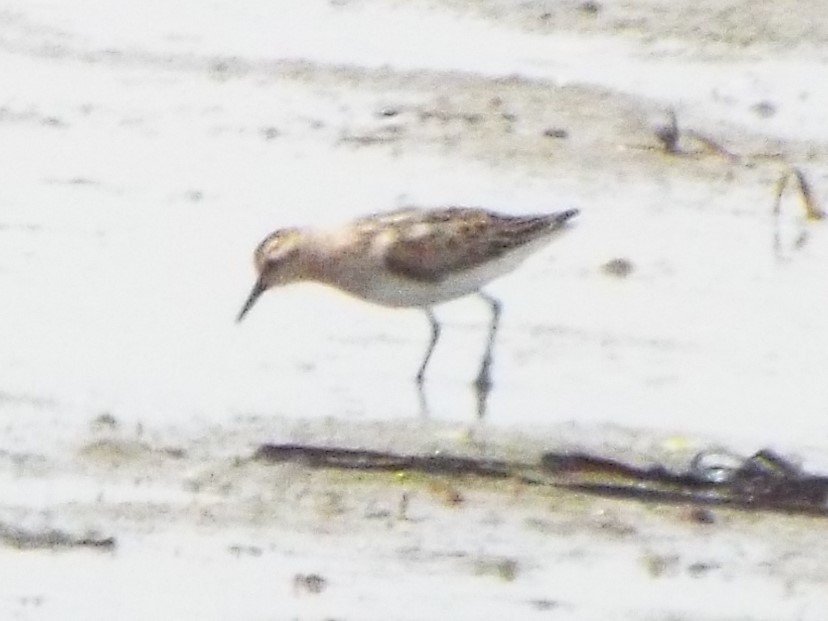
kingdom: Animalia
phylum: Chordata
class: Aves
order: Charadriiformes
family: Scolopacidae
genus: Calidris
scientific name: Calidris minuta
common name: Little stint
